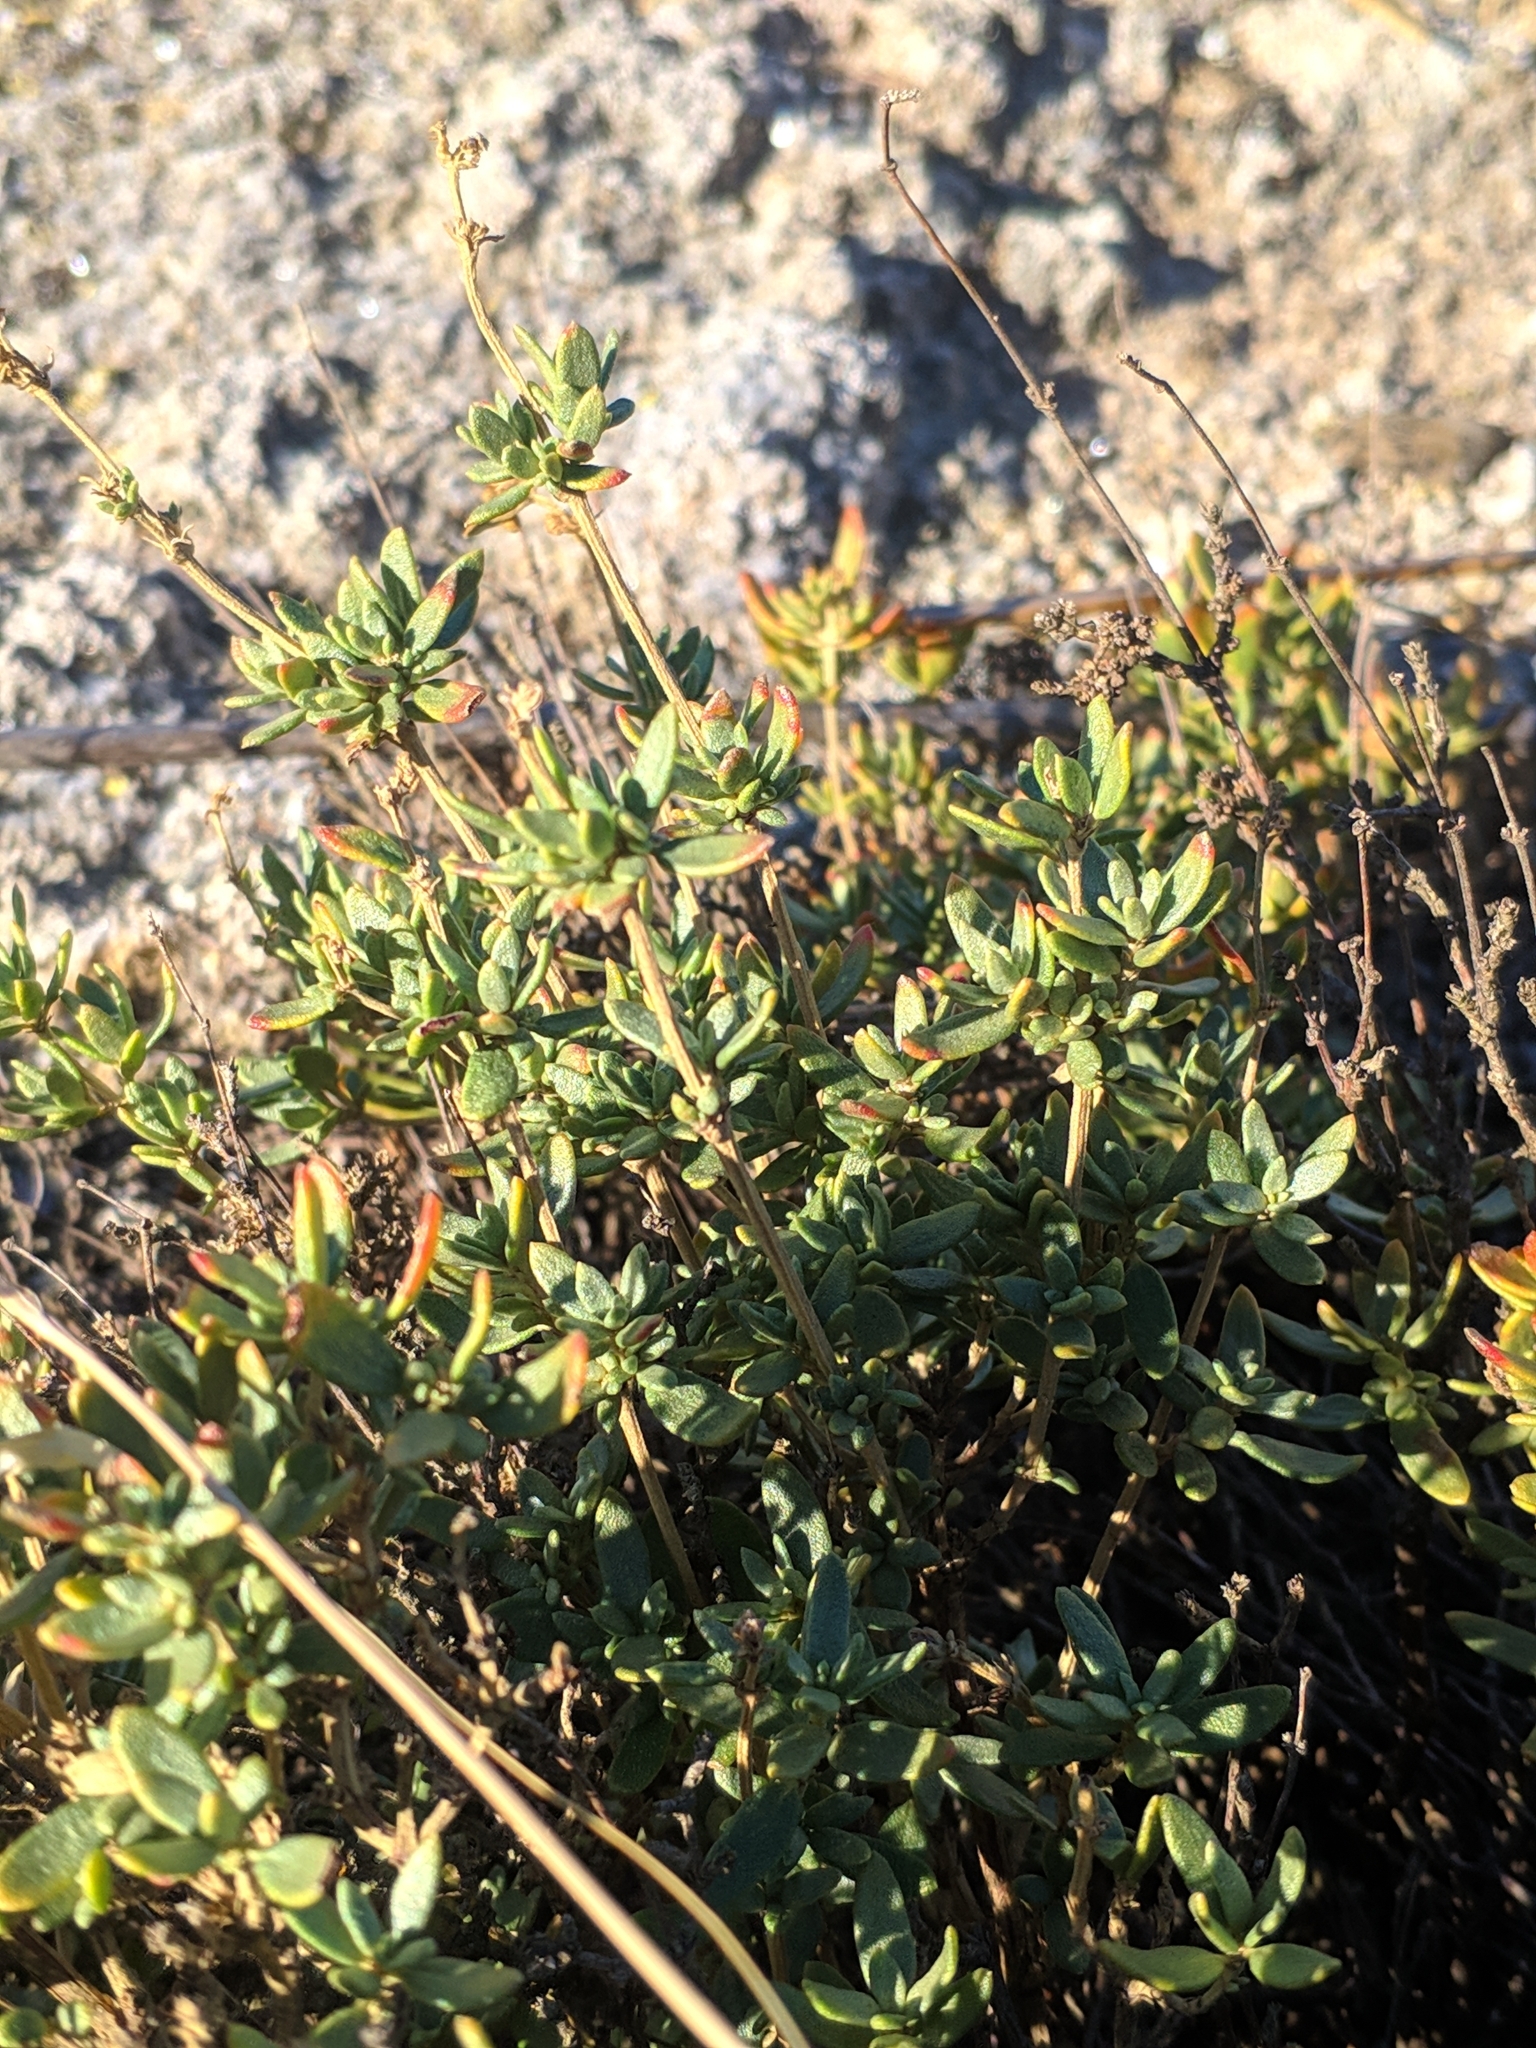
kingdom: Plantae
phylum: Tracheophyta
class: Magnoliopsida
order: Malvales
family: Cistaceae
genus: Helianthemum
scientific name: Helianthemum squamatum
